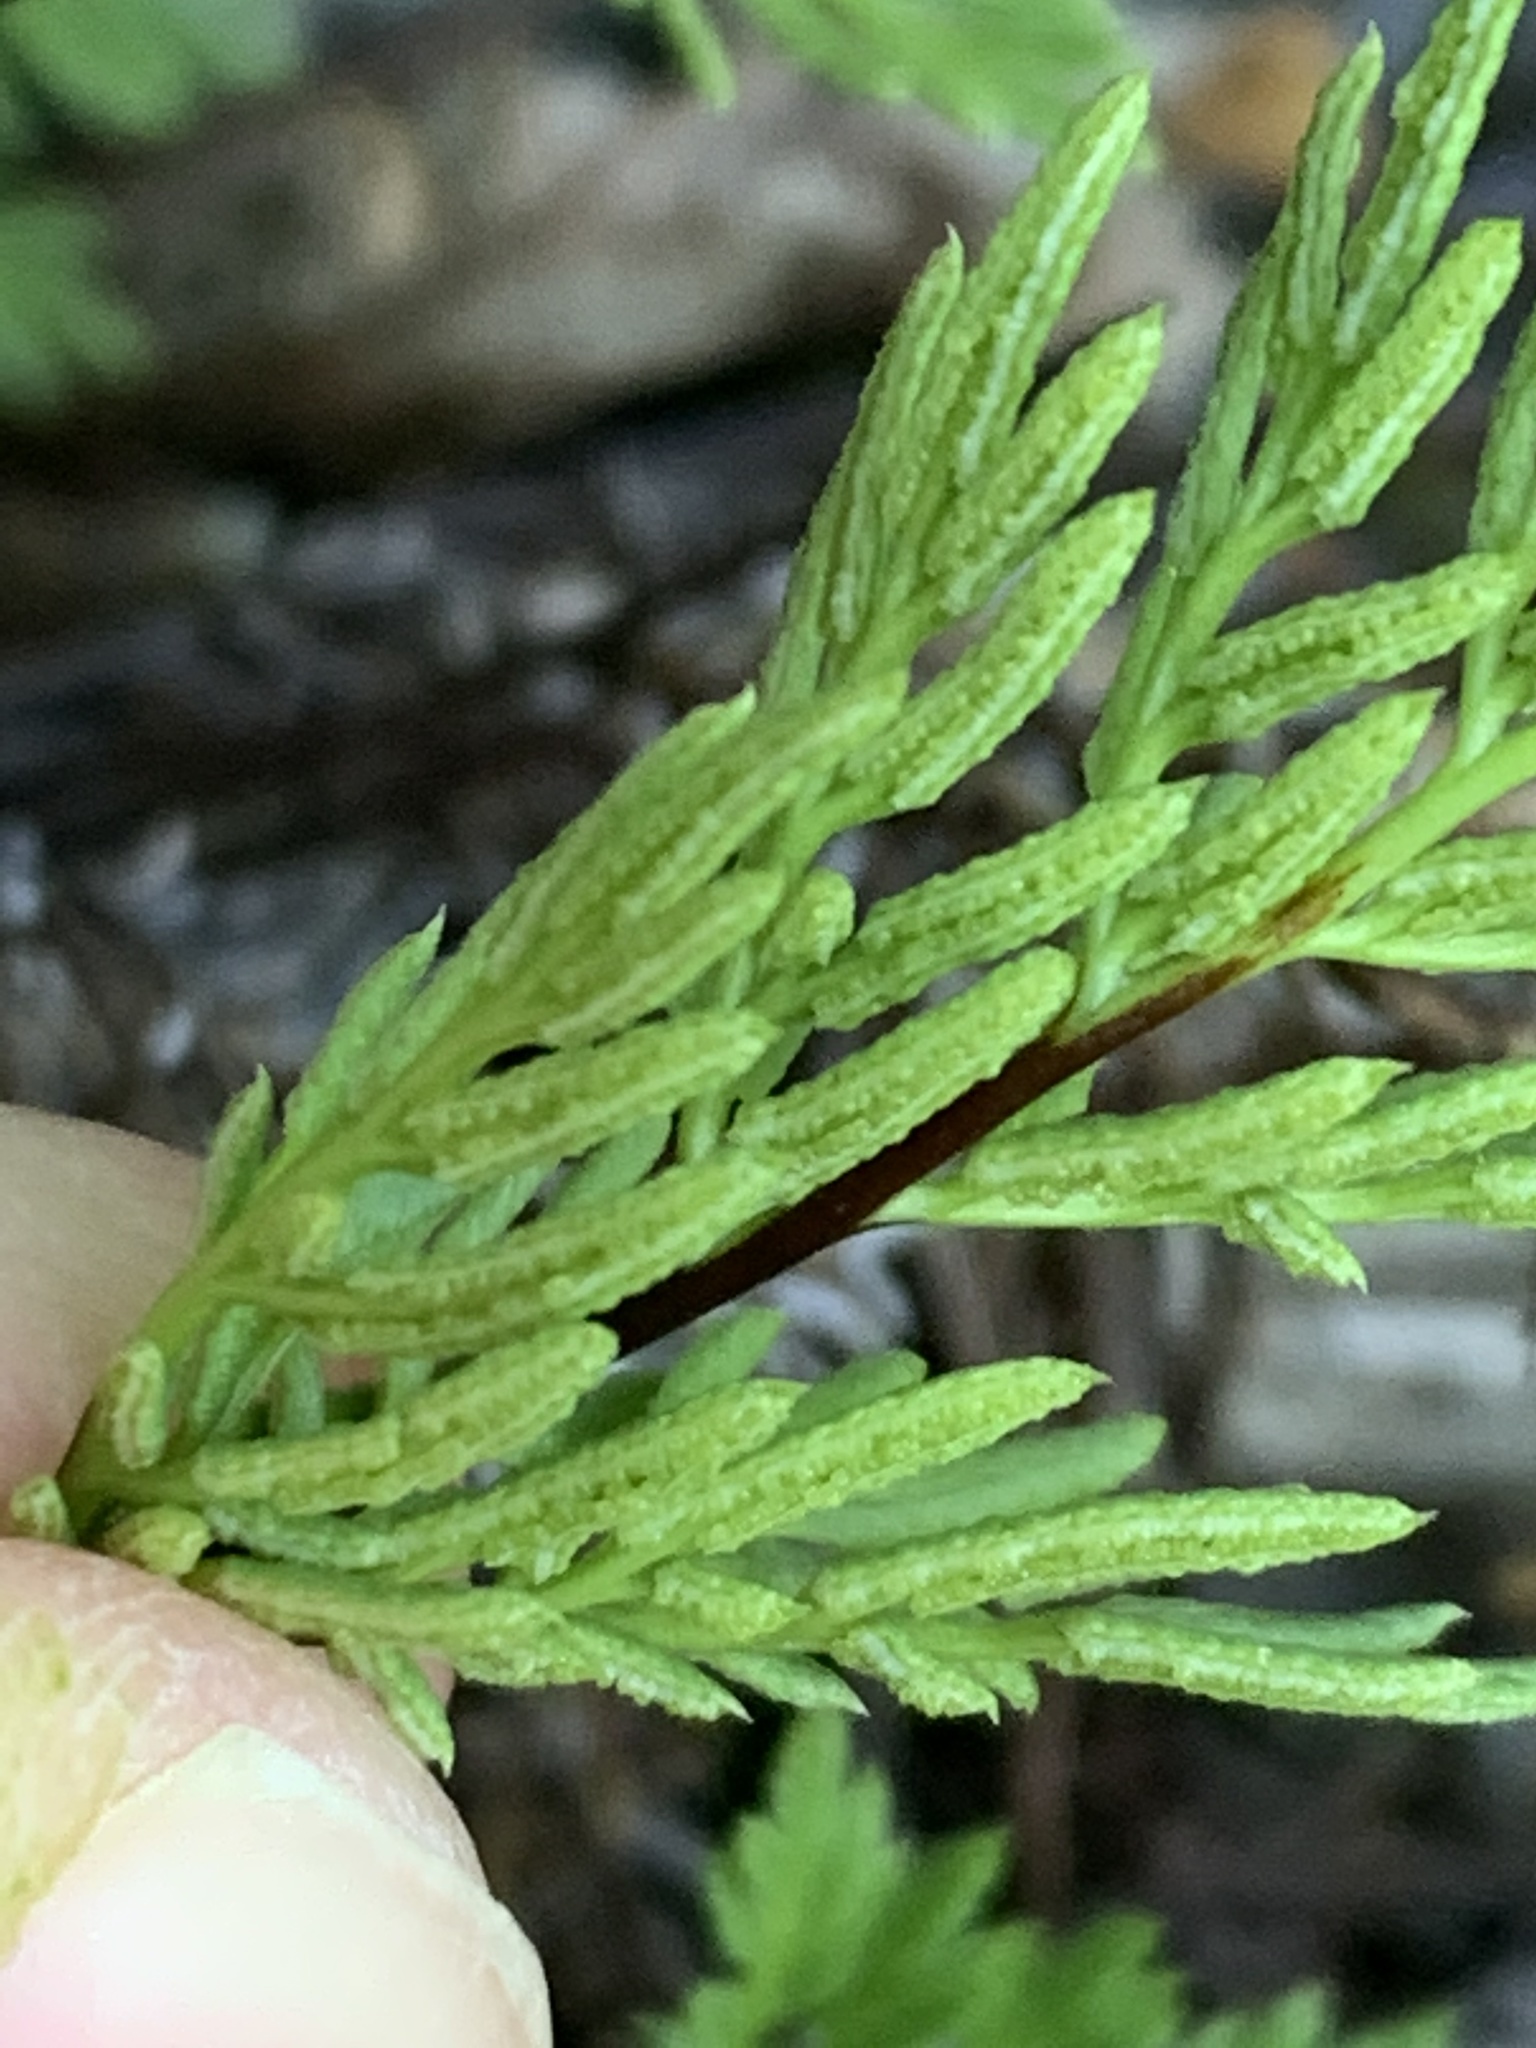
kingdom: Plantae
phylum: Tracheophyta
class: Polypodiopsida
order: Polypodiales
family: Pteridaceae
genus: Aspidotis
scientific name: Aspidotis densa
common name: Indian's dream
